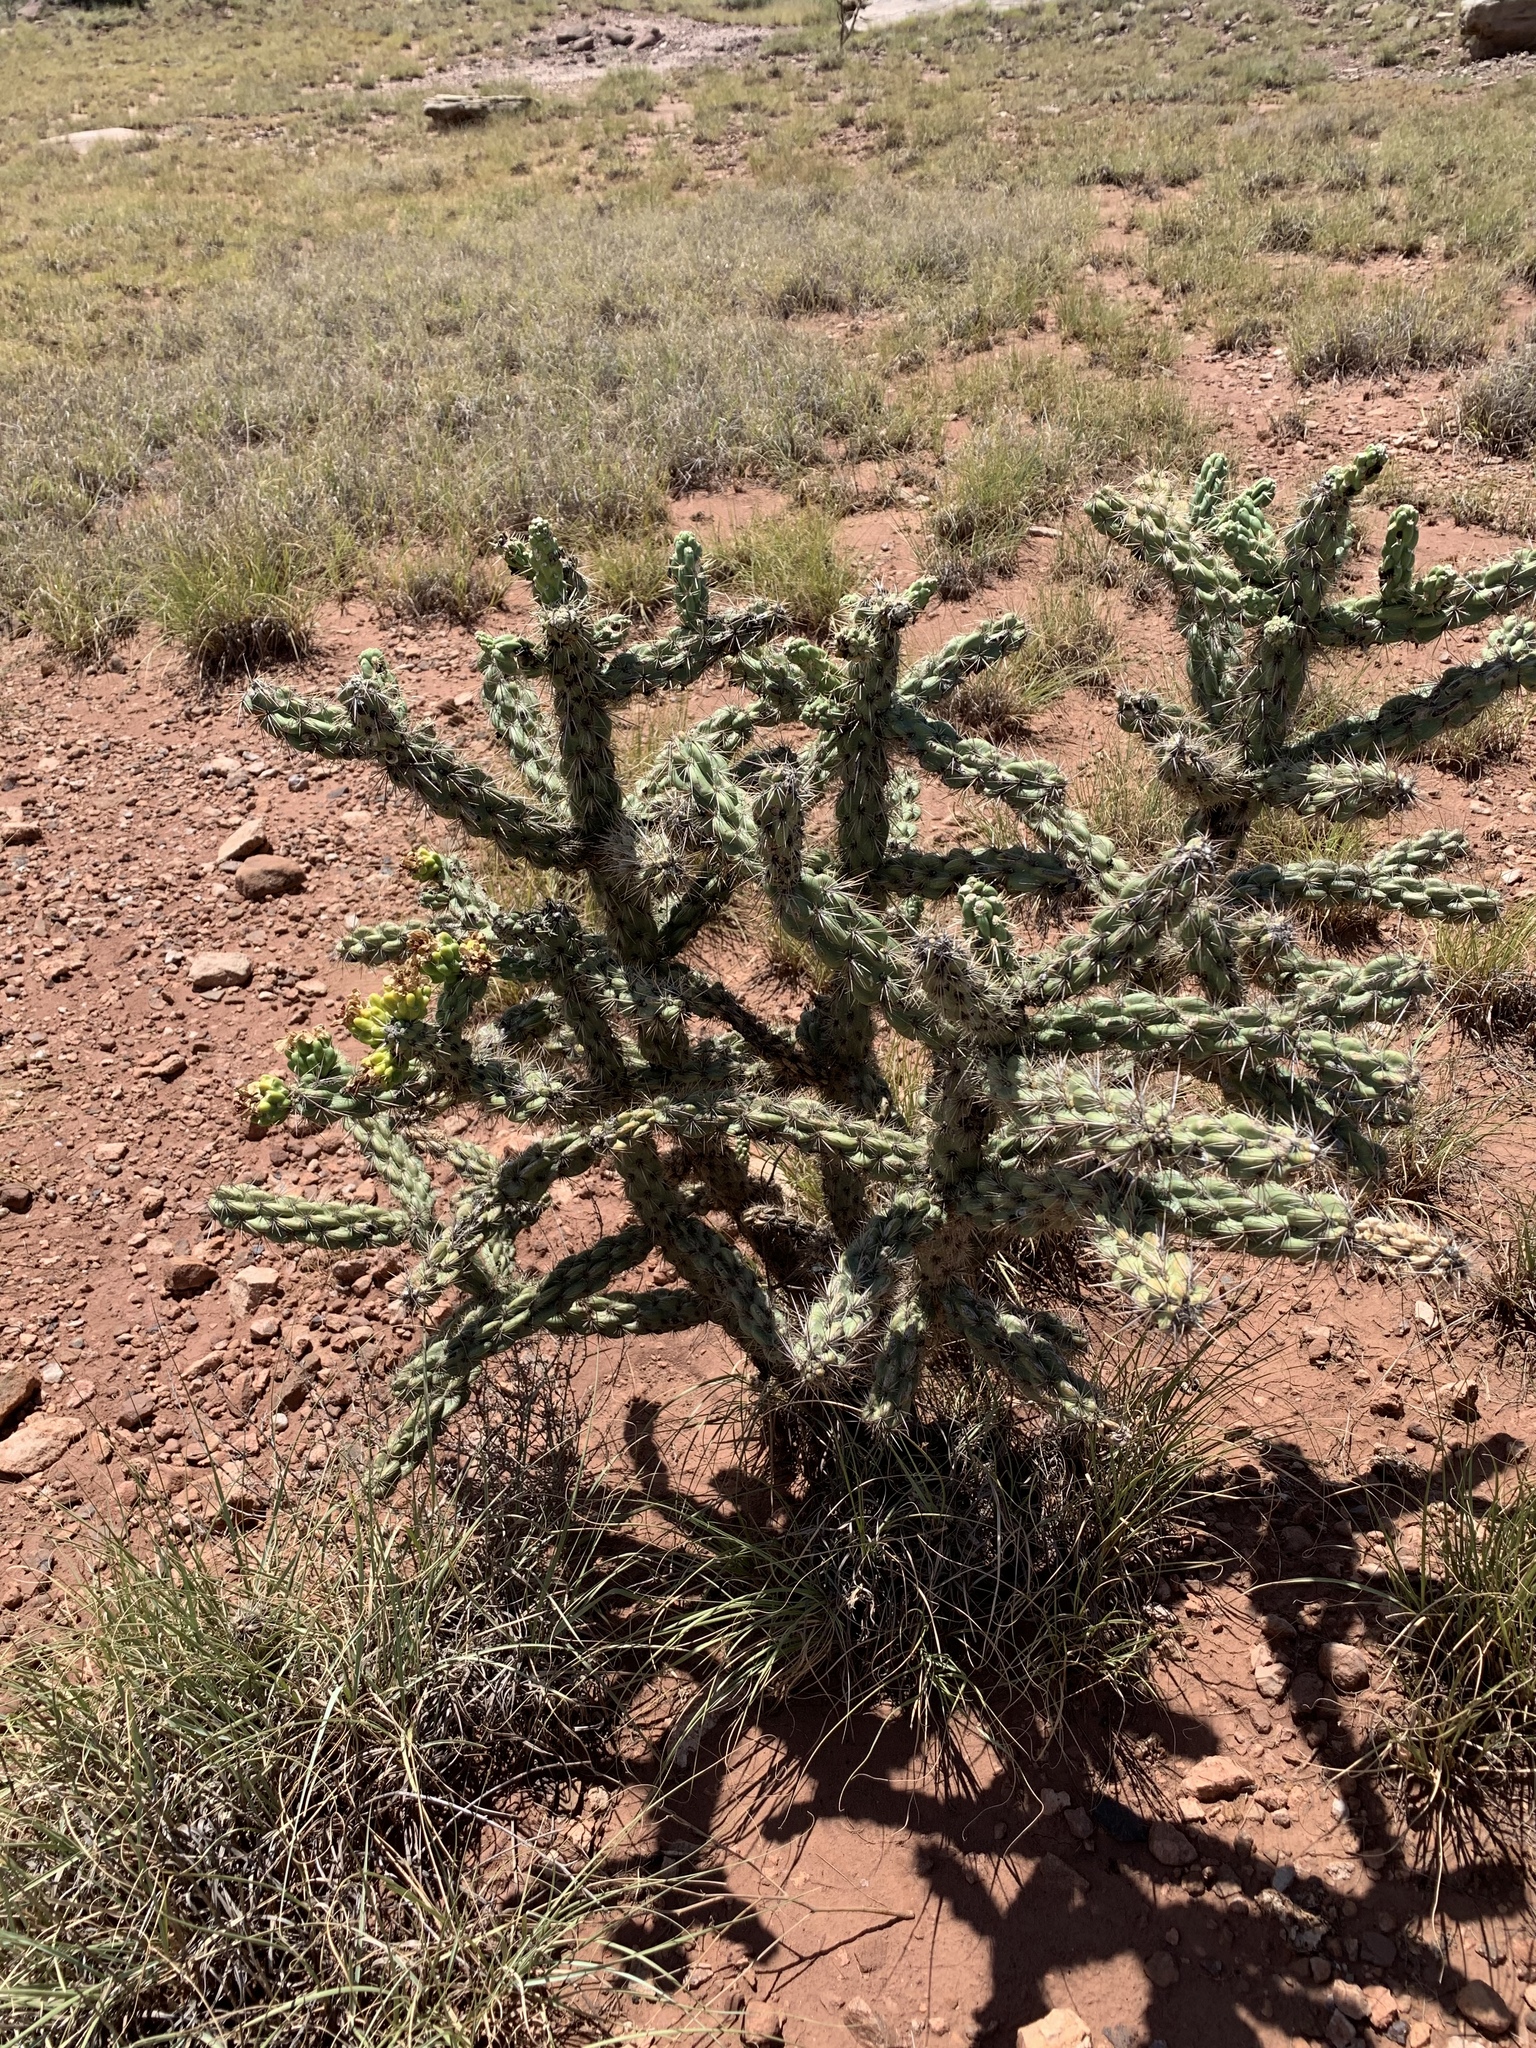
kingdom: Plantae
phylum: Tracheophyta
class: Magnoliopsida
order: Caryophyllales
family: Cactaceae
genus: Cylindropuntia
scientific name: Cylindropuntia imbricata
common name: Candelabrum cactus
